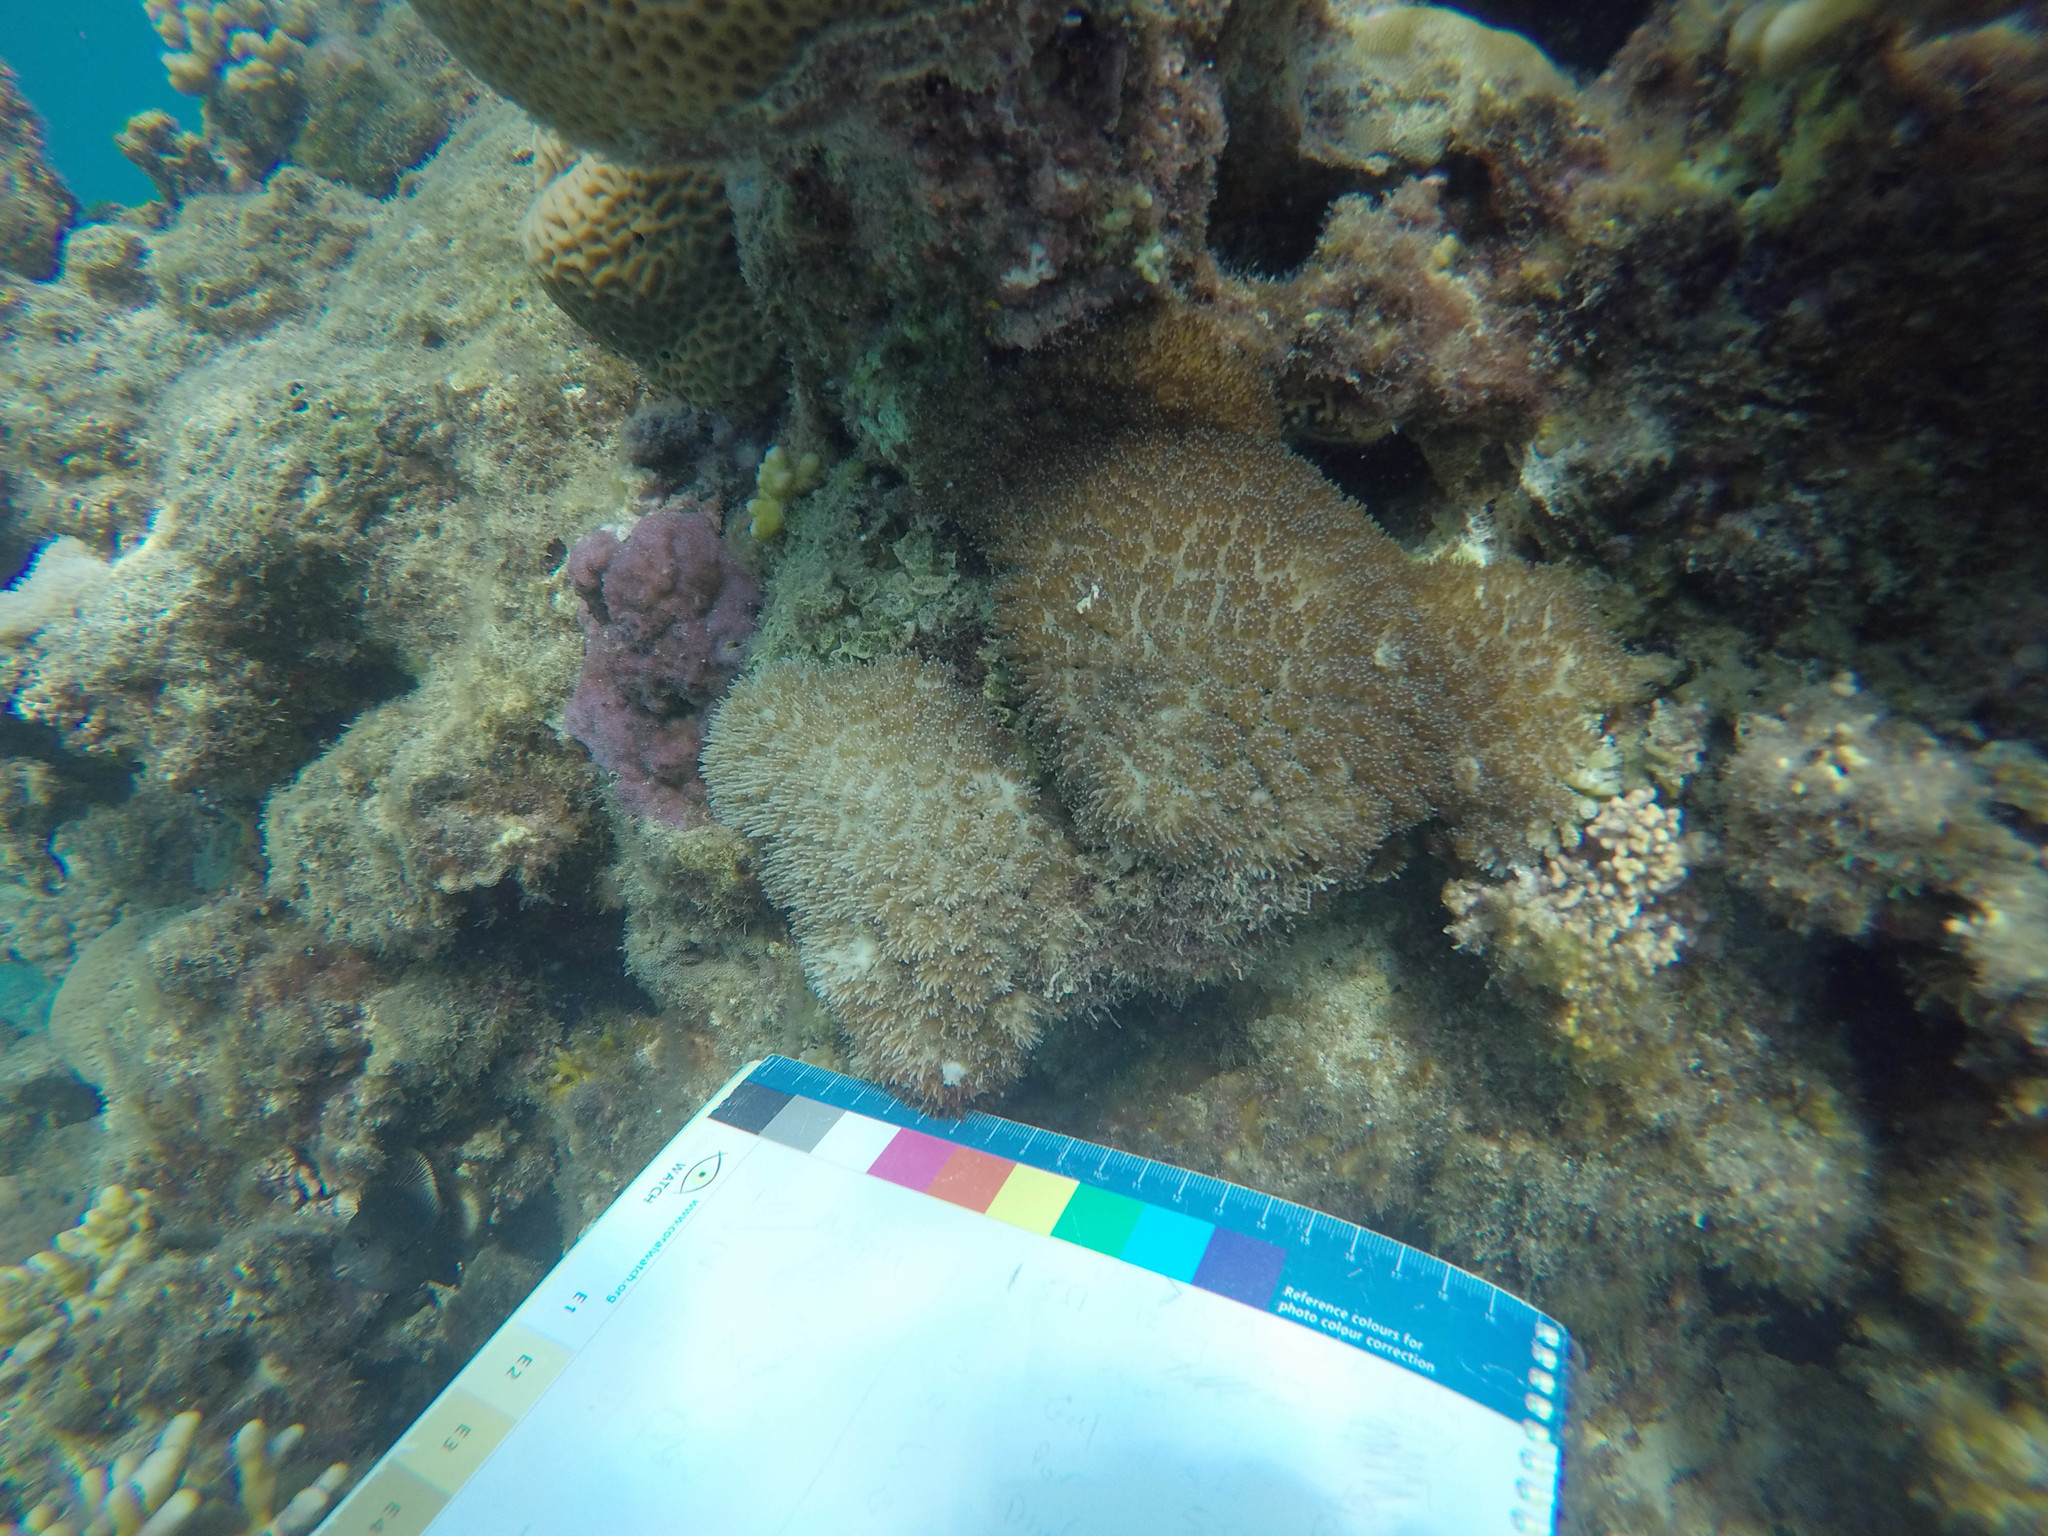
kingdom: Animalia
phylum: Cnidaria
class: Anthozoa
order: Scleractinia
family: Euphylliidae
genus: Galaxea
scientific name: Galaxea fascicularis
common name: Octopus coral
